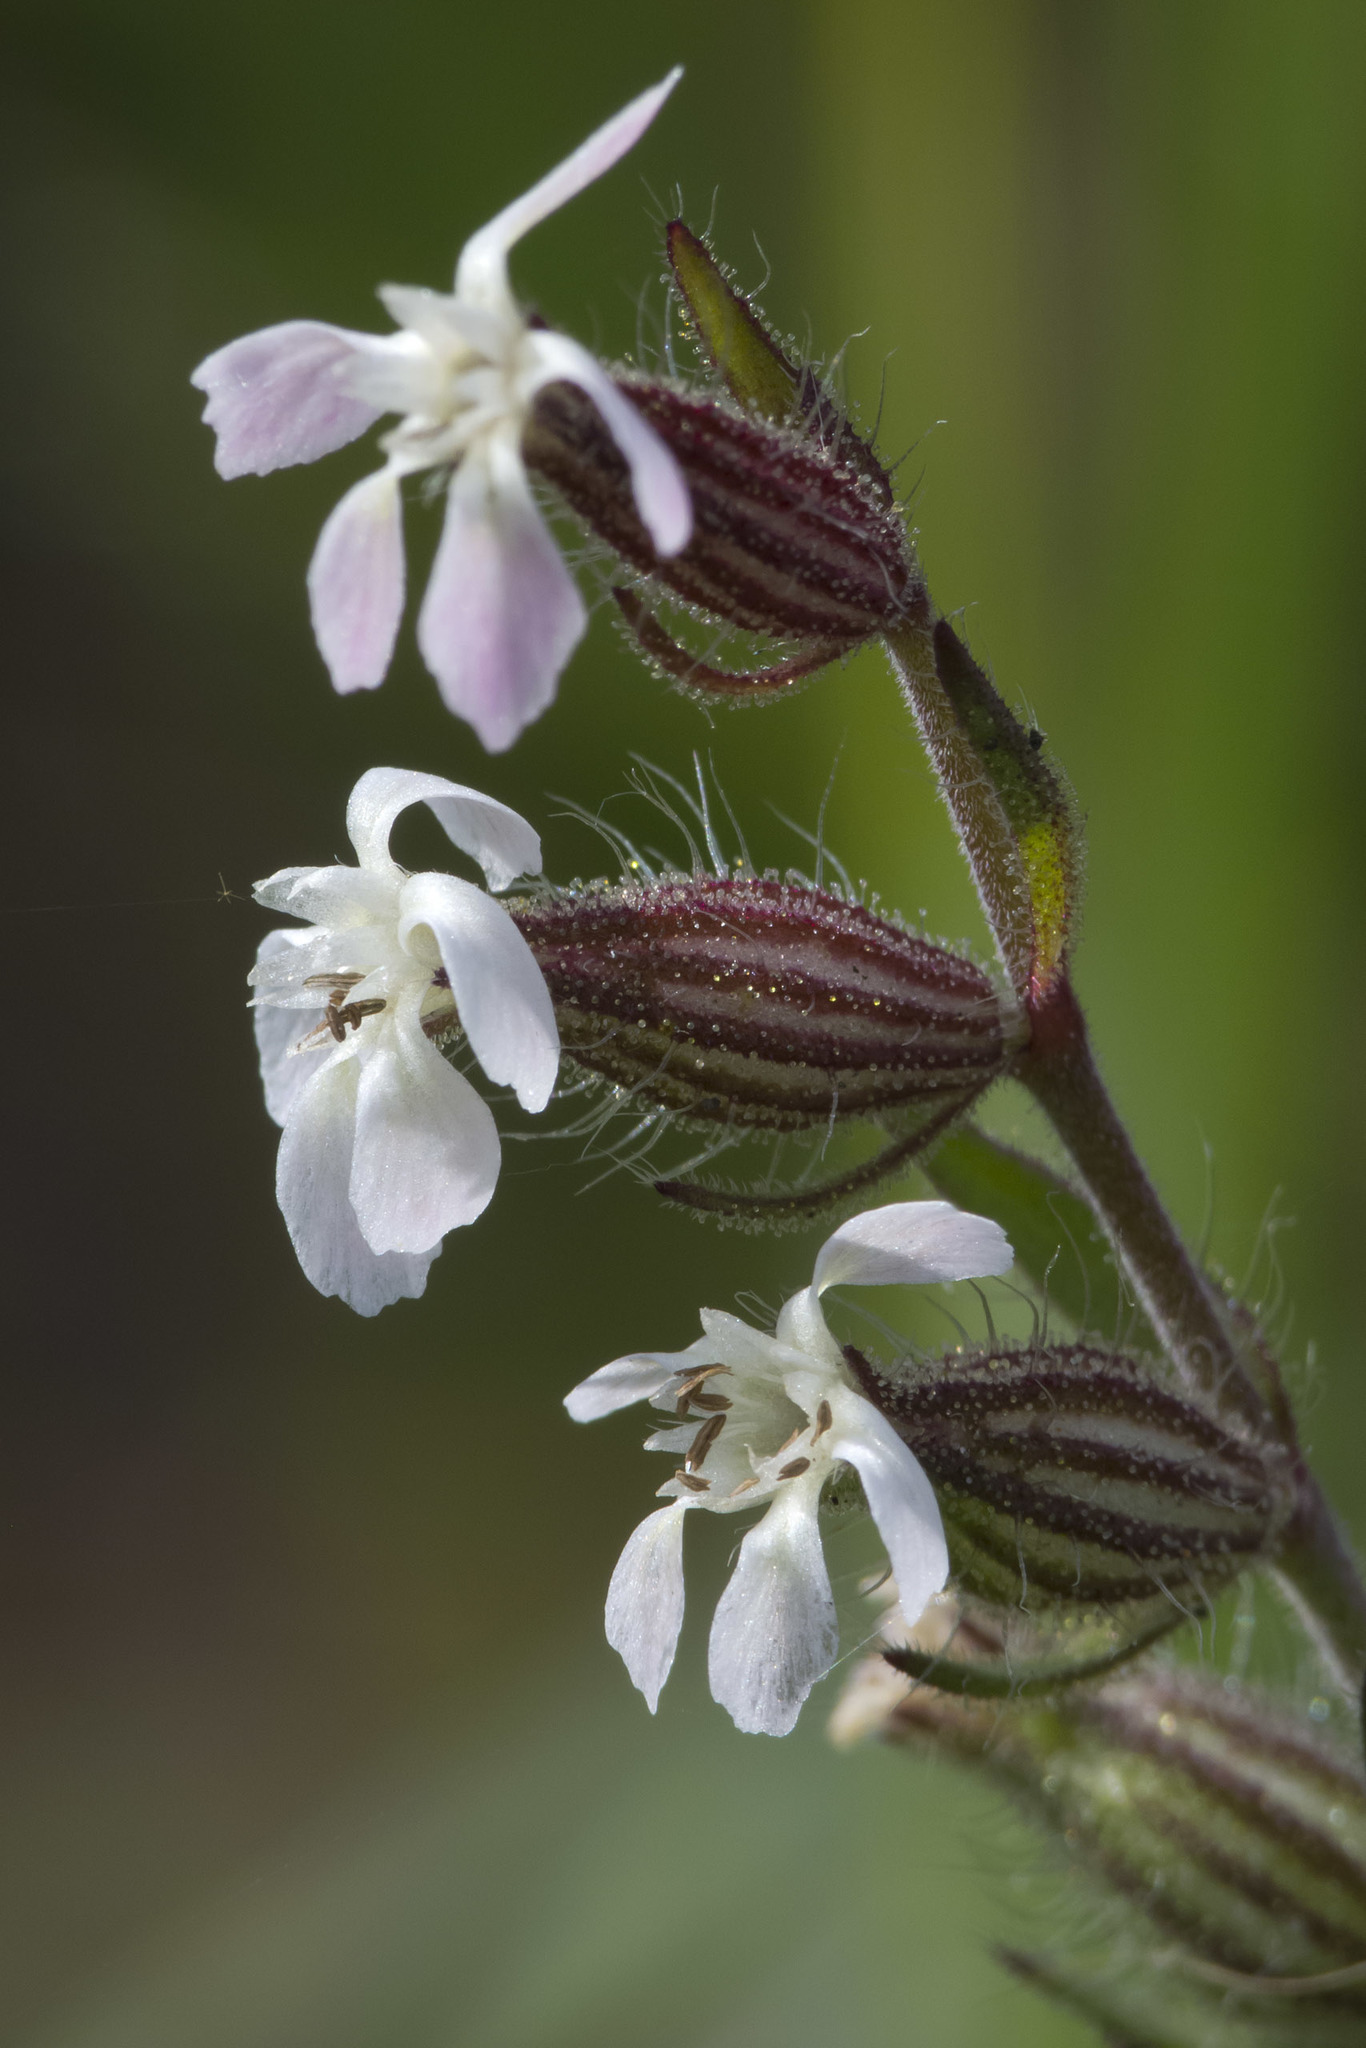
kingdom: Plantae
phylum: Tracheophyta
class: Magnoliopsida
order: Caryophyllales
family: Caryophyllaceae
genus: Silene
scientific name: Silene gallica
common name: Small-flowered catchfly
